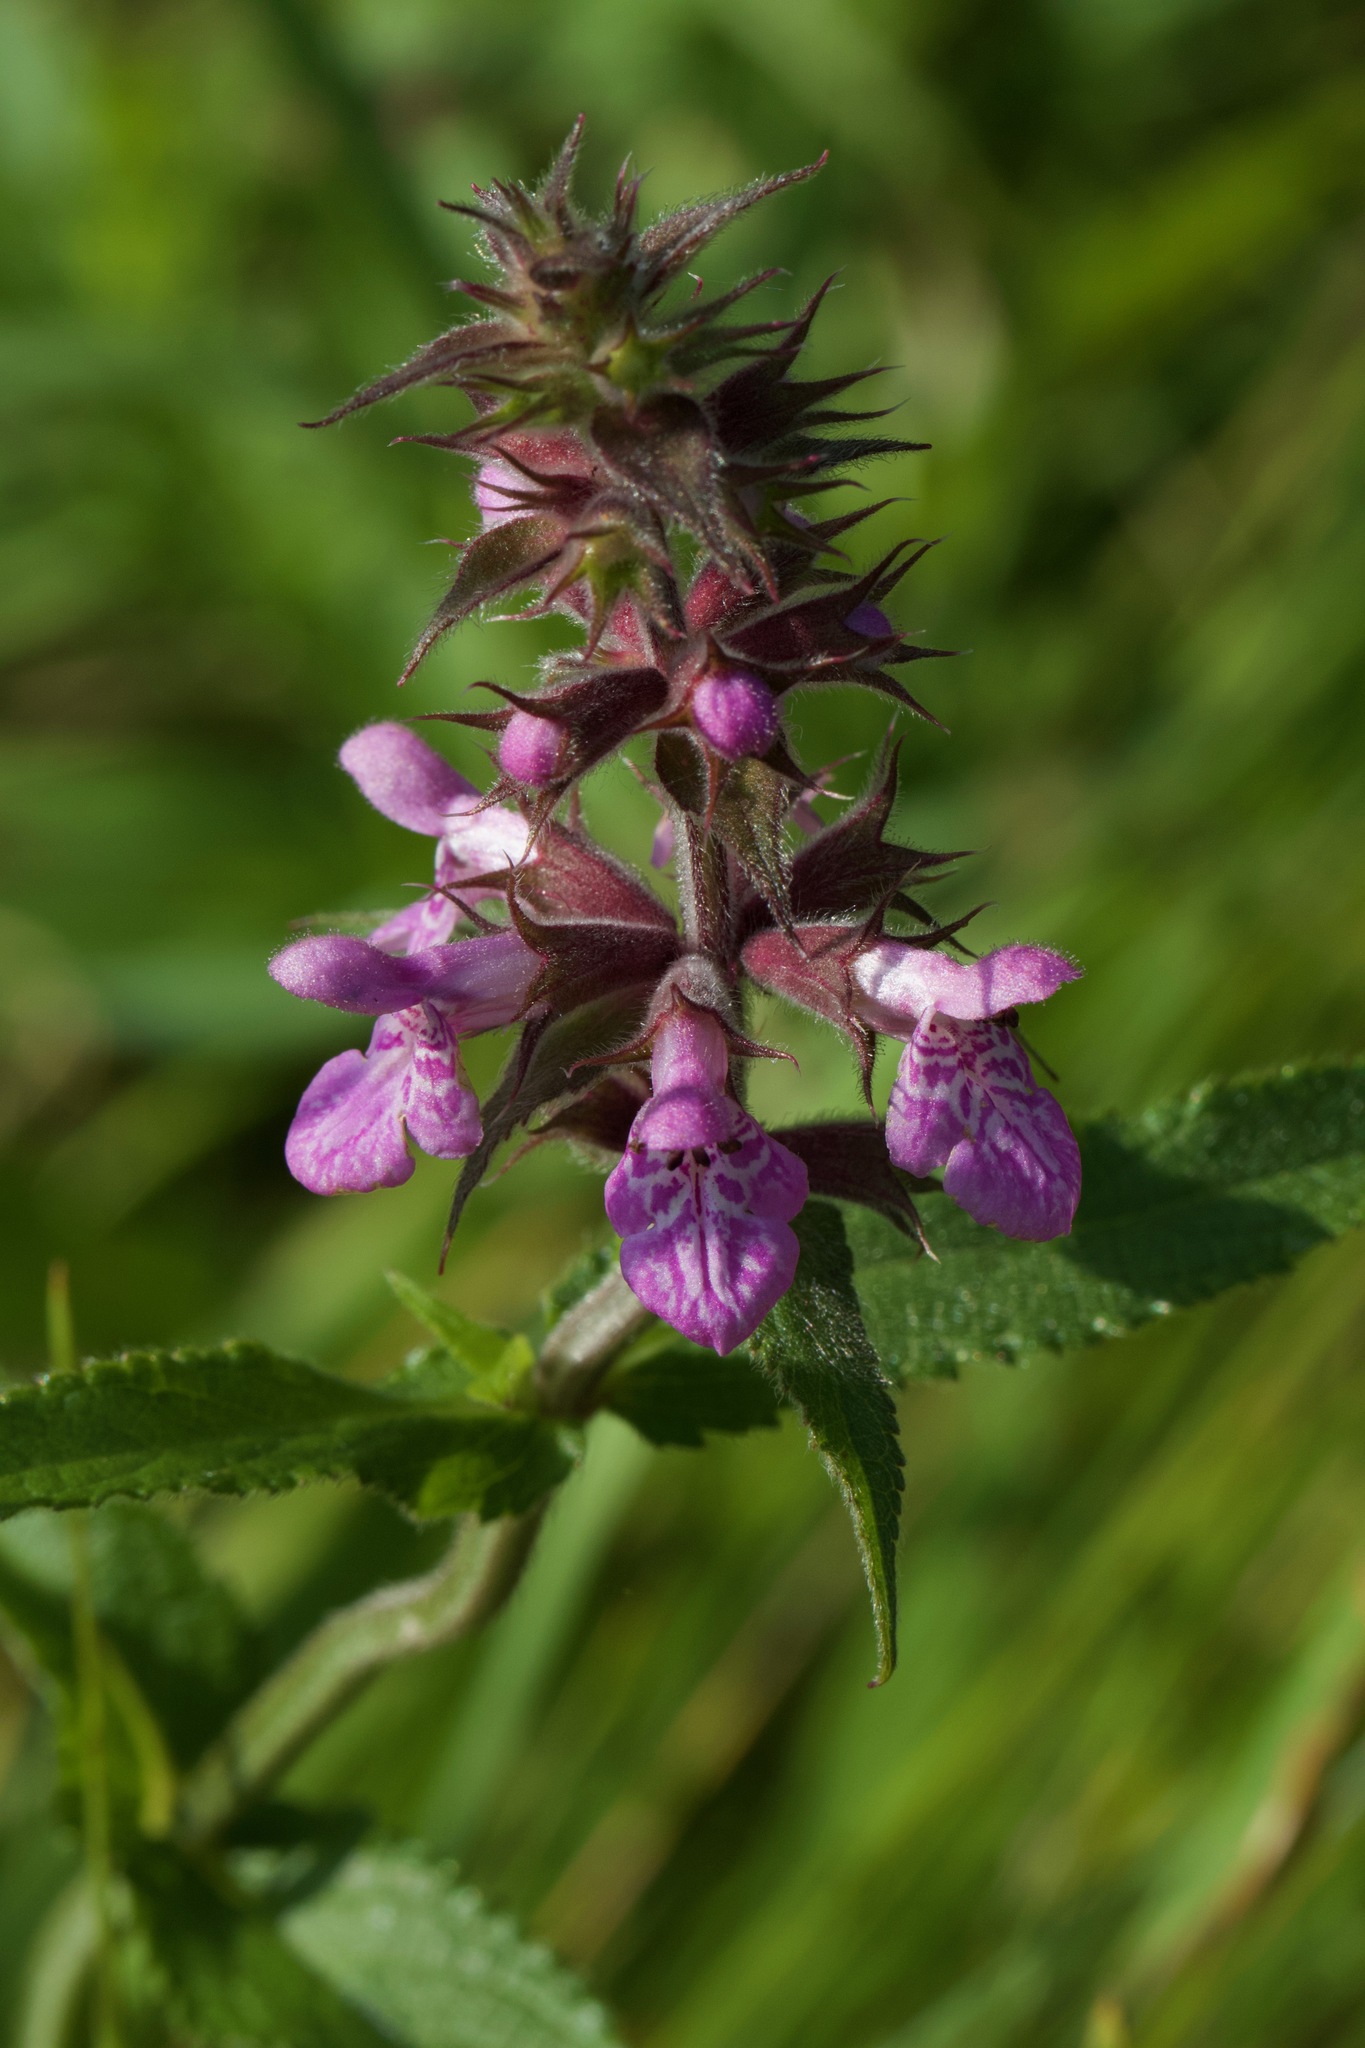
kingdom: Plantae
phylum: Tracheophyta
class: Magnoliopsida
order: Lamiales
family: Lamiaceae
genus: Stachys
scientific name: Stachys palustris
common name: Marsh woundwort
